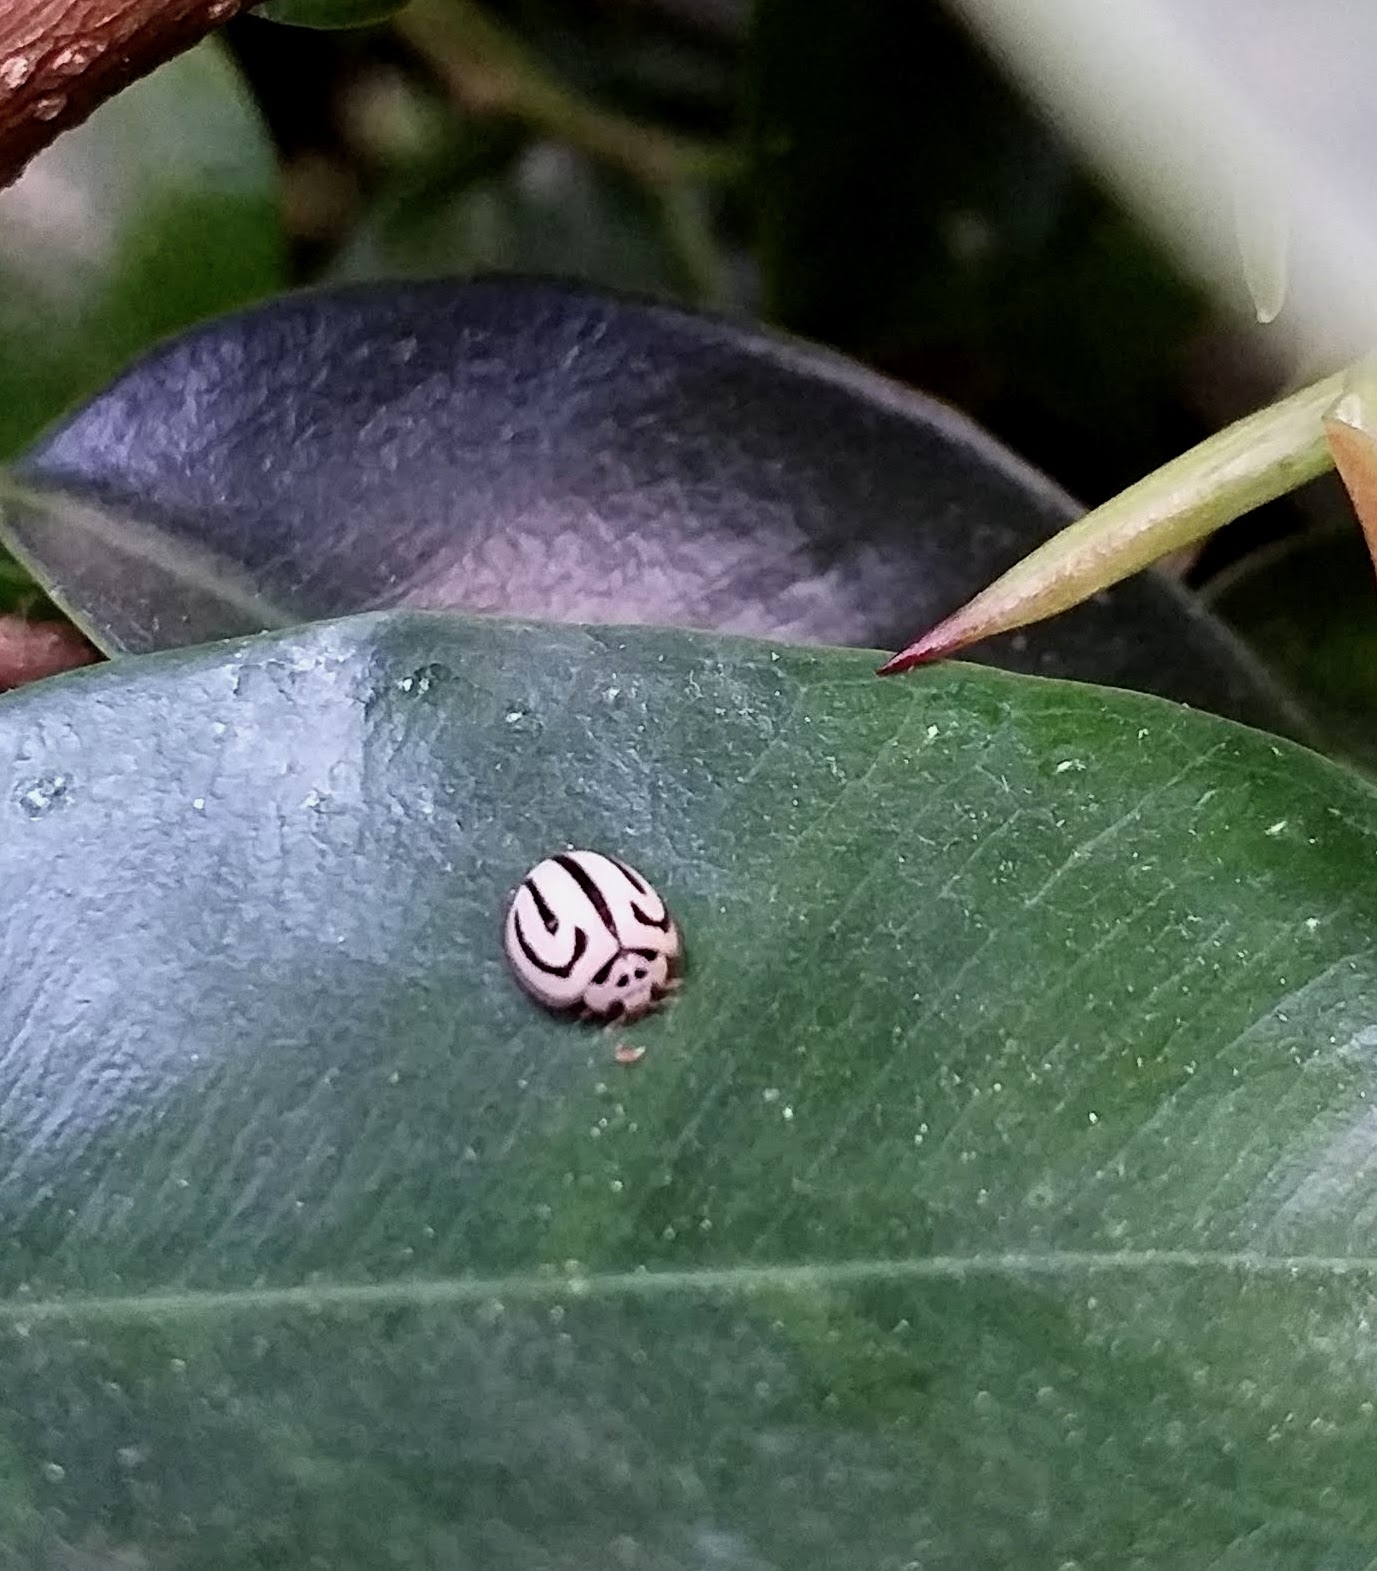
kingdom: Animalia
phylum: Arthropoda
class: Insecta
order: Coleoptera
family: Coccinellidae
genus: Anegleis
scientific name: Anegleis cardoni
